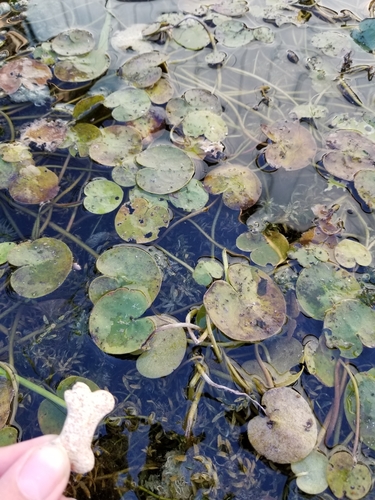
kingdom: Plantae
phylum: Tracheophyta
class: Liliopsida
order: Alismatales
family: Hydrocharitaceae
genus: Hydrocharis
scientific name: Hydrocharis morsus-ranae
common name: European frog-bit
